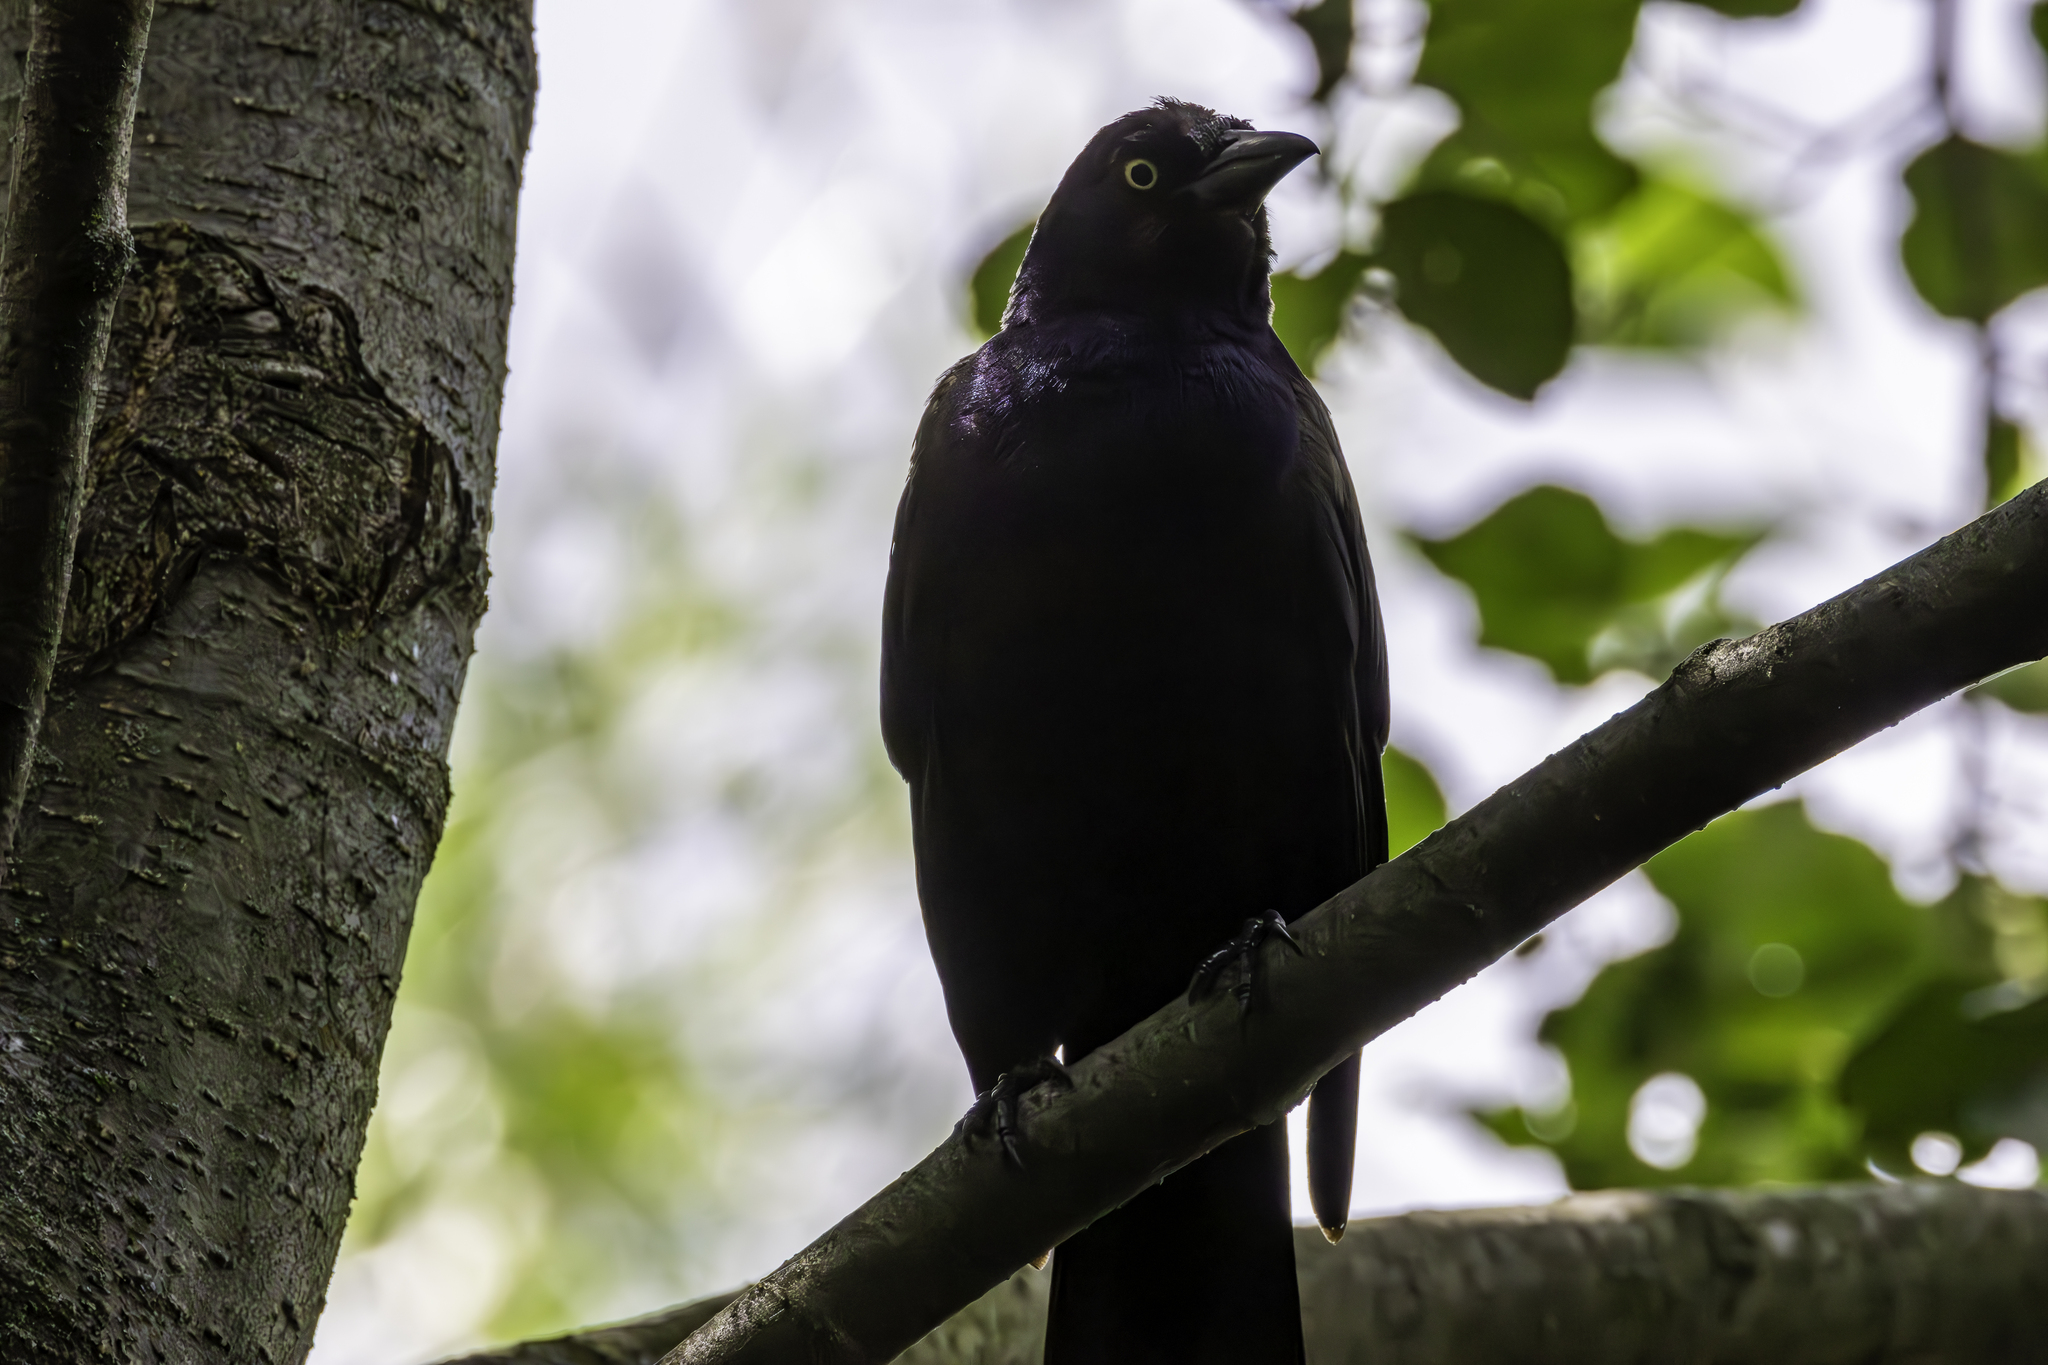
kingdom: Animalia
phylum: Chordata
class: Aves
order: Passeriformes
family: Icteridae
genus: Quiscalus
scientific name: Quiscalus quiscula
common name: Common grackle
